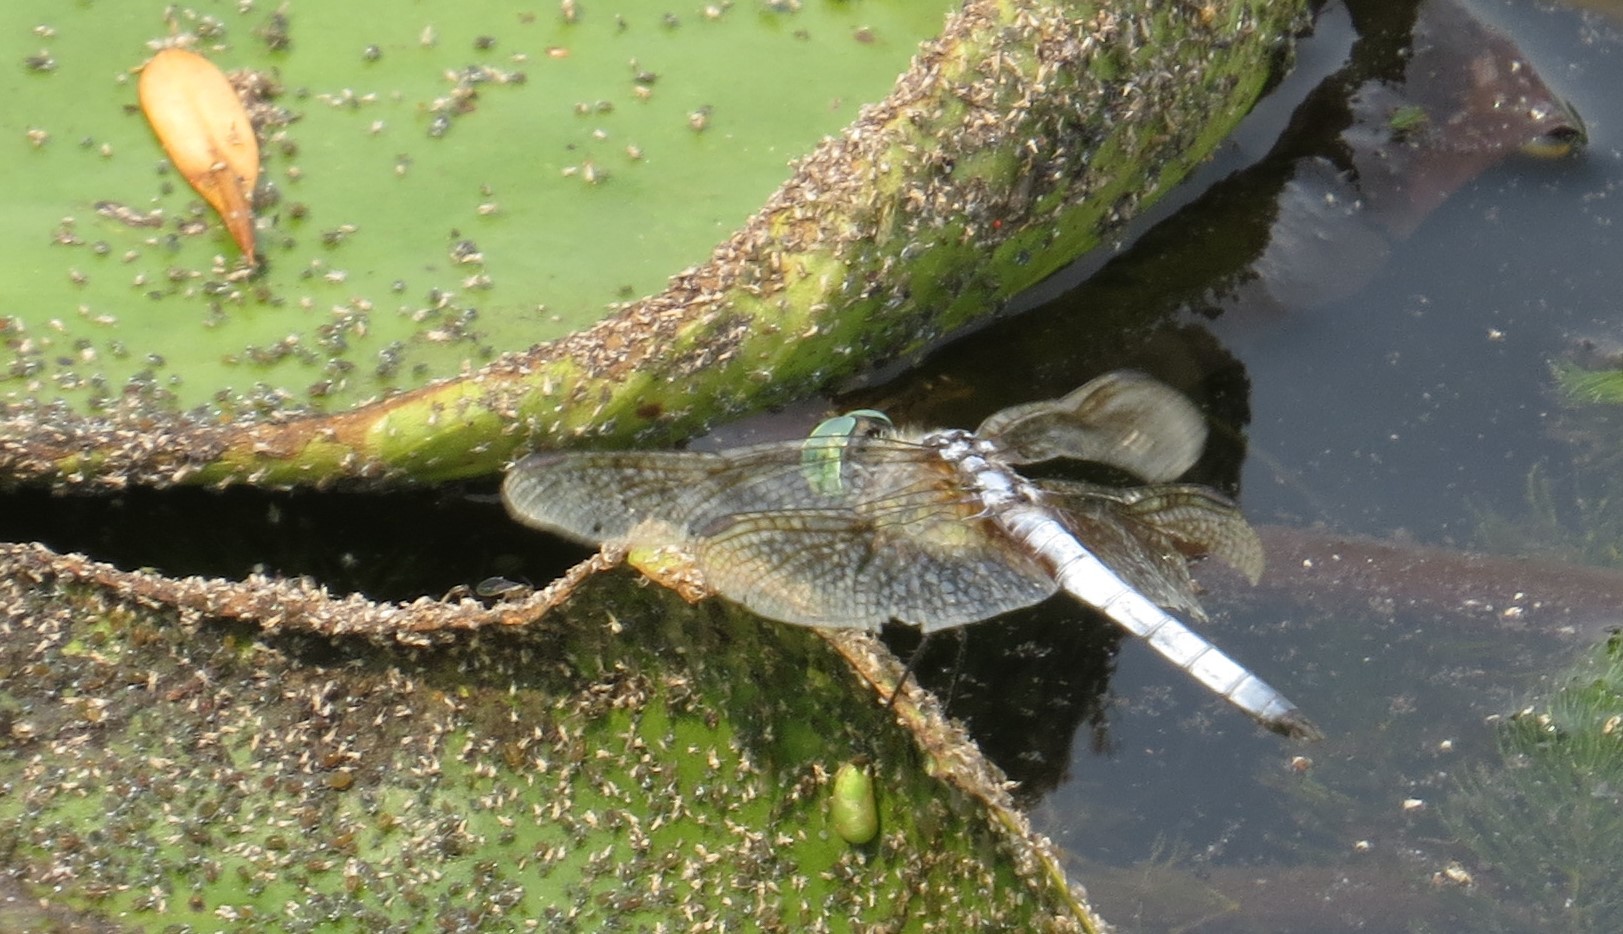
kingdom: Animalia
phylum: Arthropoda
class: Insecta
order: Odonata
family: Libellulidae
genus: Pachydiplax
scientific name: Pachydiplax longipennis
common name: Blue dasher
